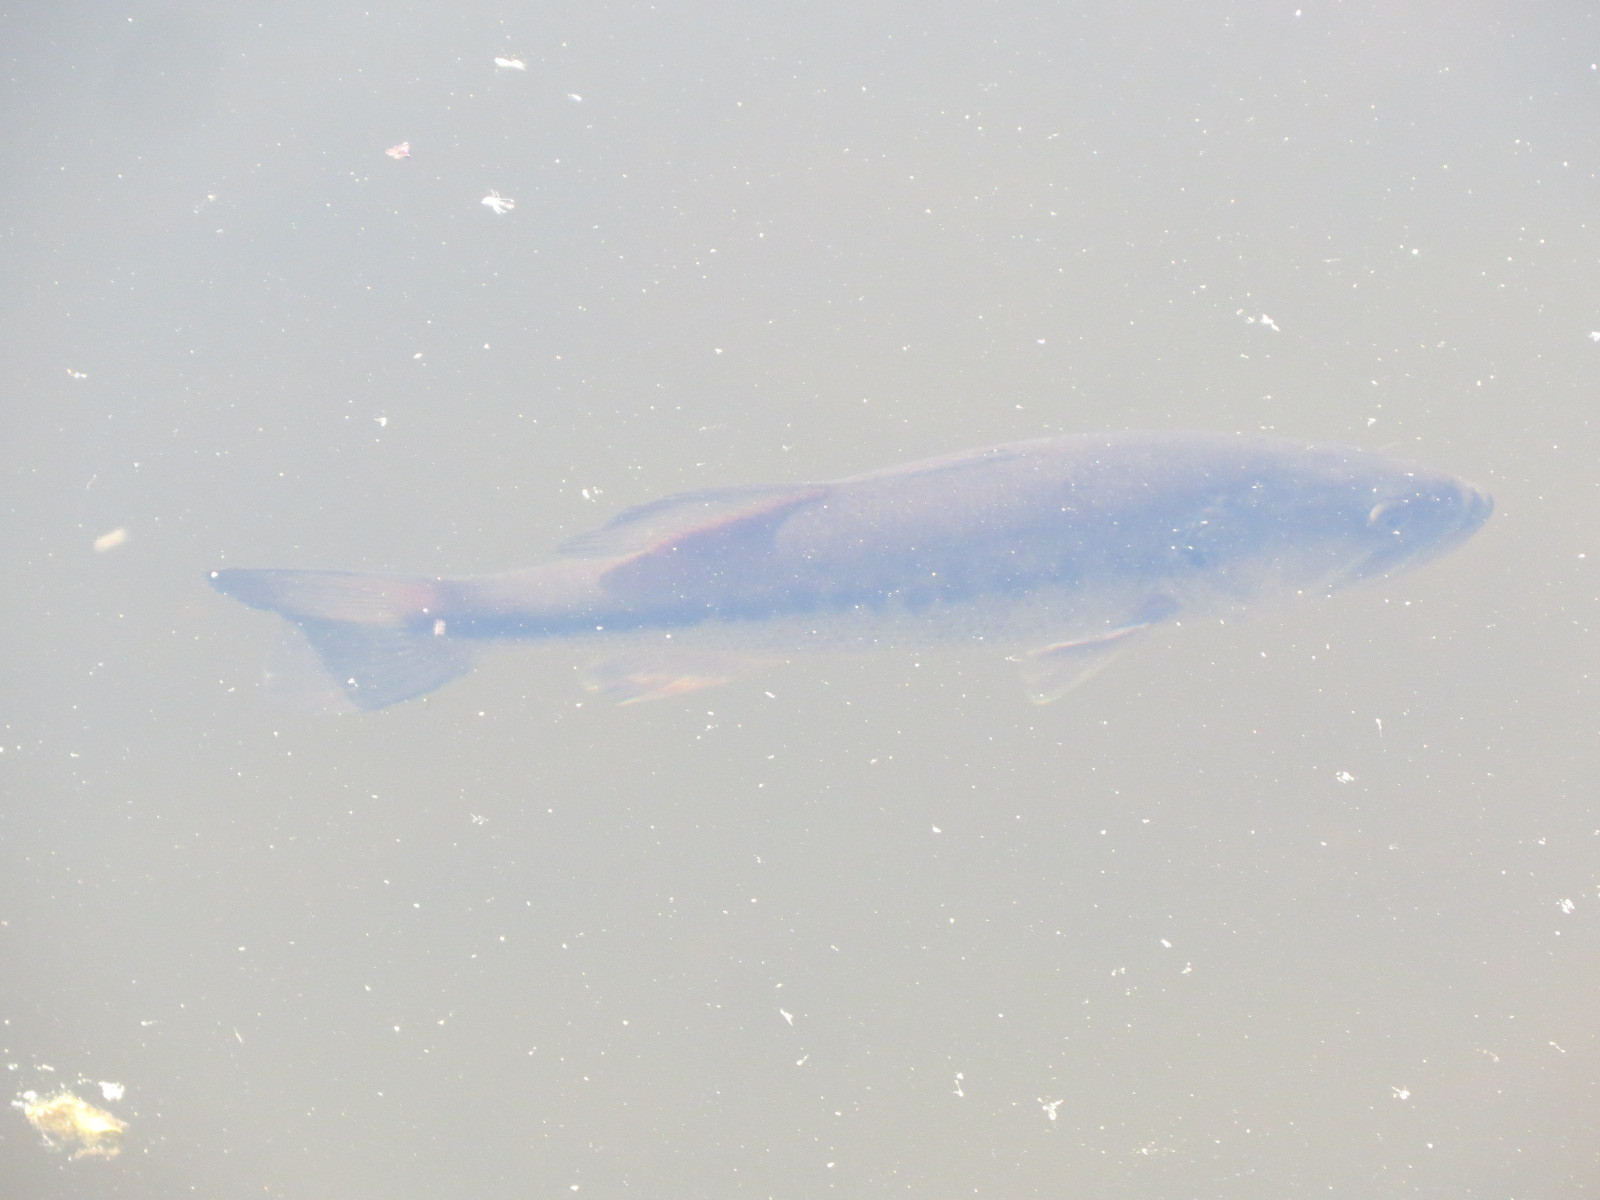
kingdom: Animalia
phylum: Chordata
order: Perciformes
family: Centrarchidae
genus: Micropterus
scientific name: Micropterus
